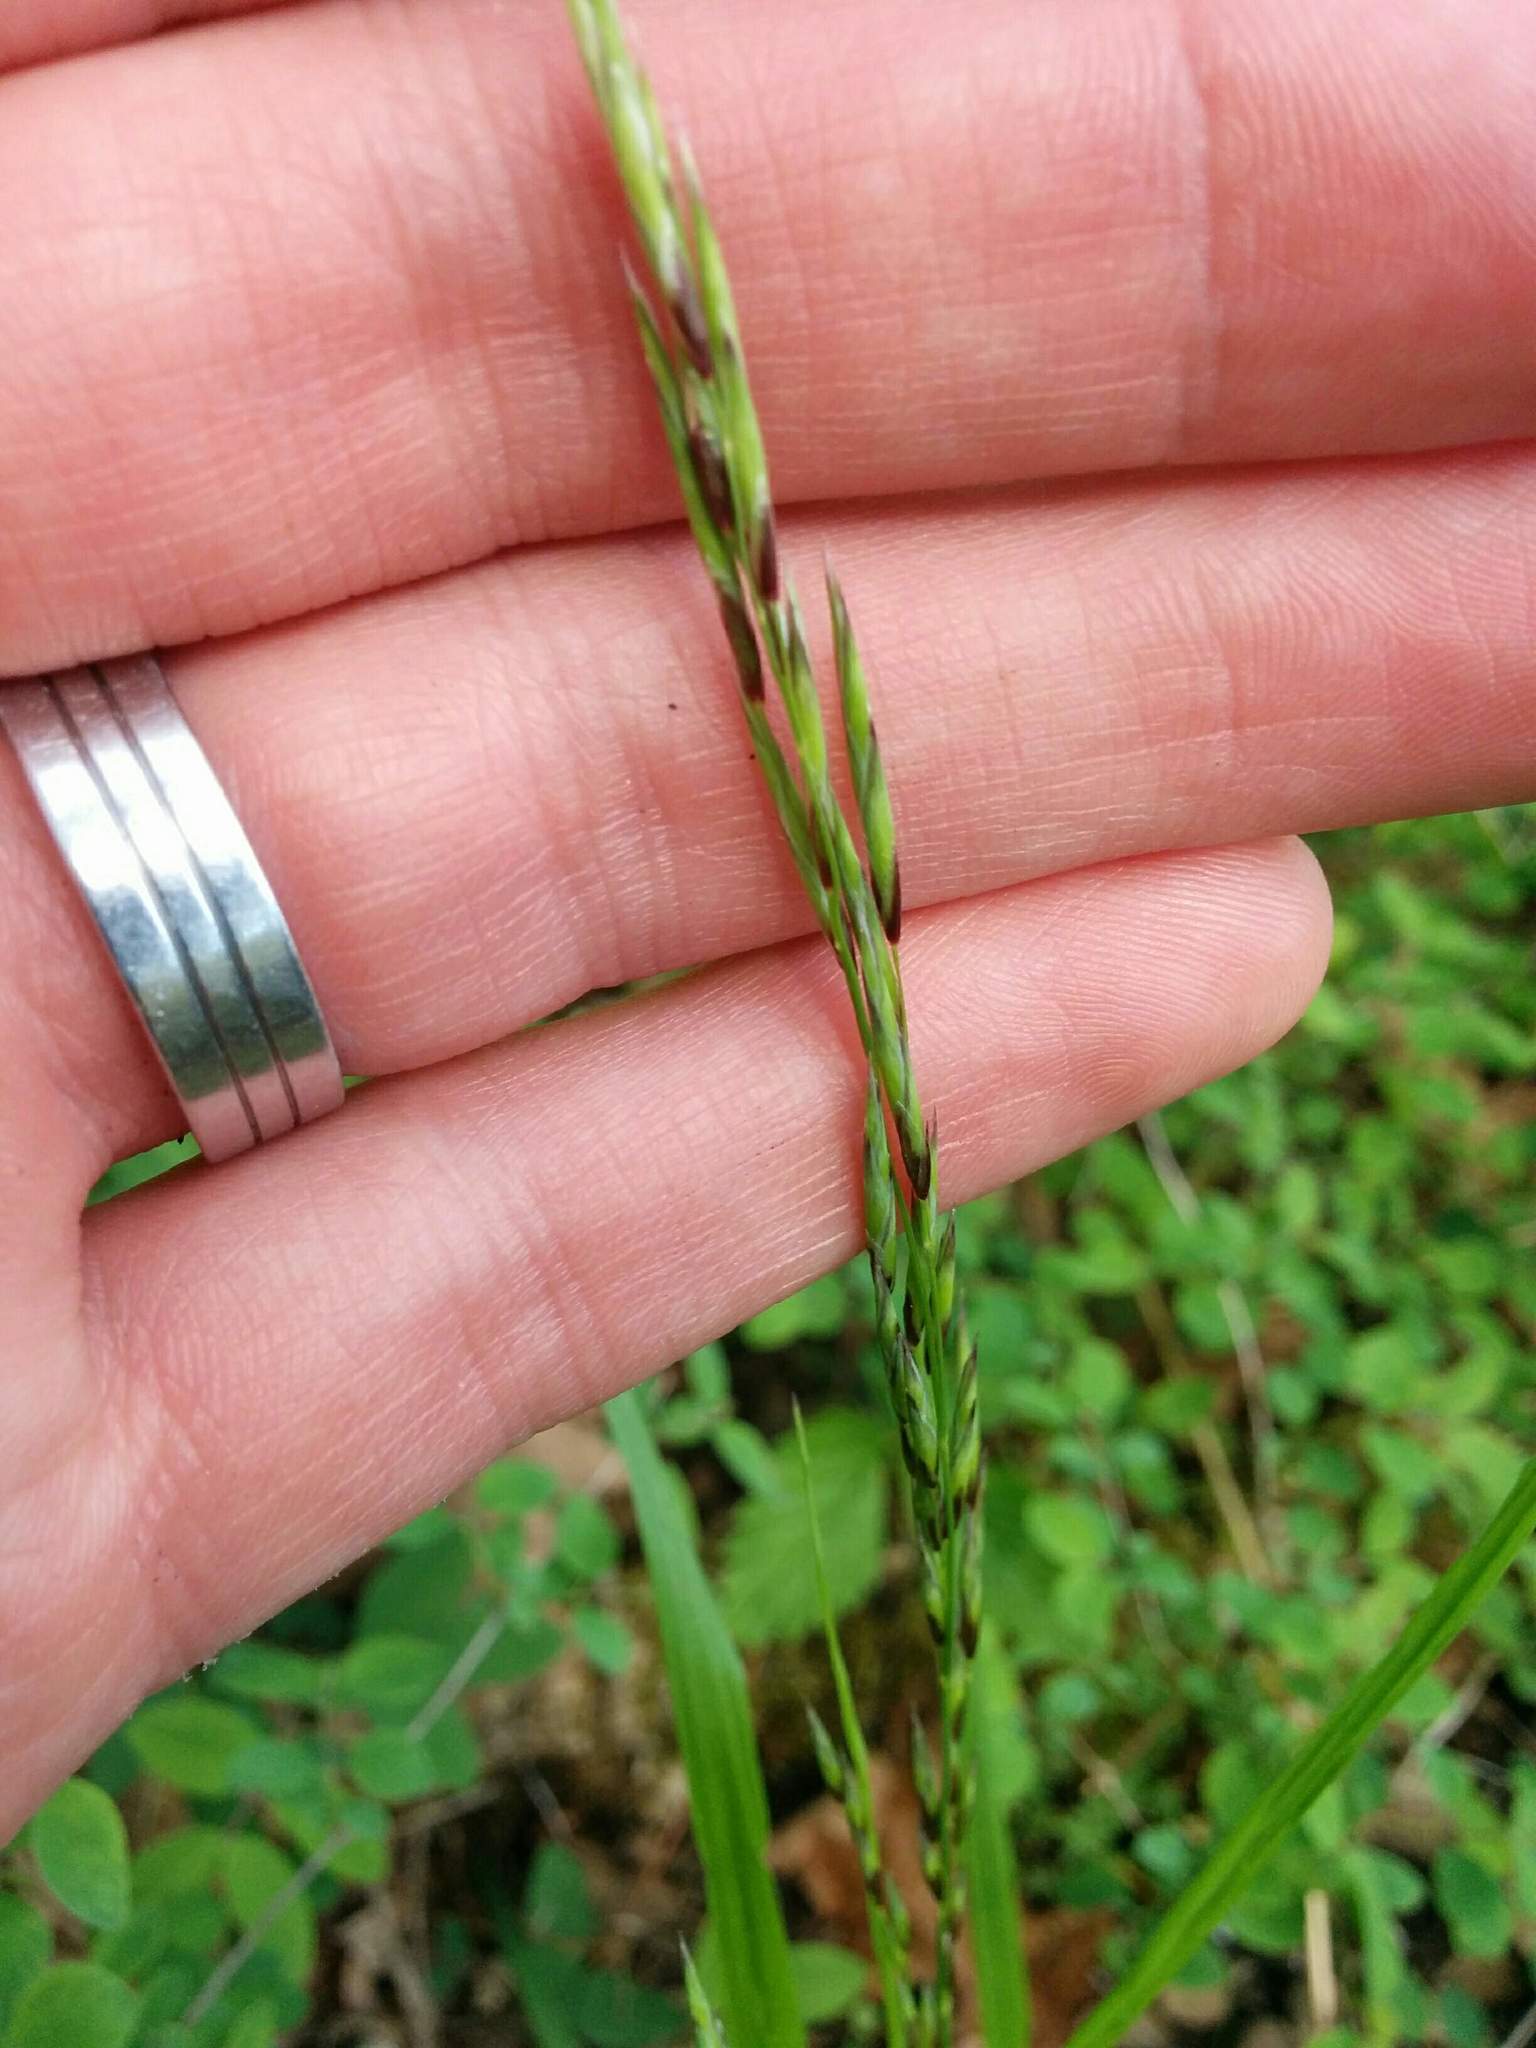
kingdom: Plantae
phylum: Tracheophyta
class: Liliopsida
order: Poales
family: Poaceae
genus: Melica
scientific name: Melica subulata
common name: Tapered oniongrass
